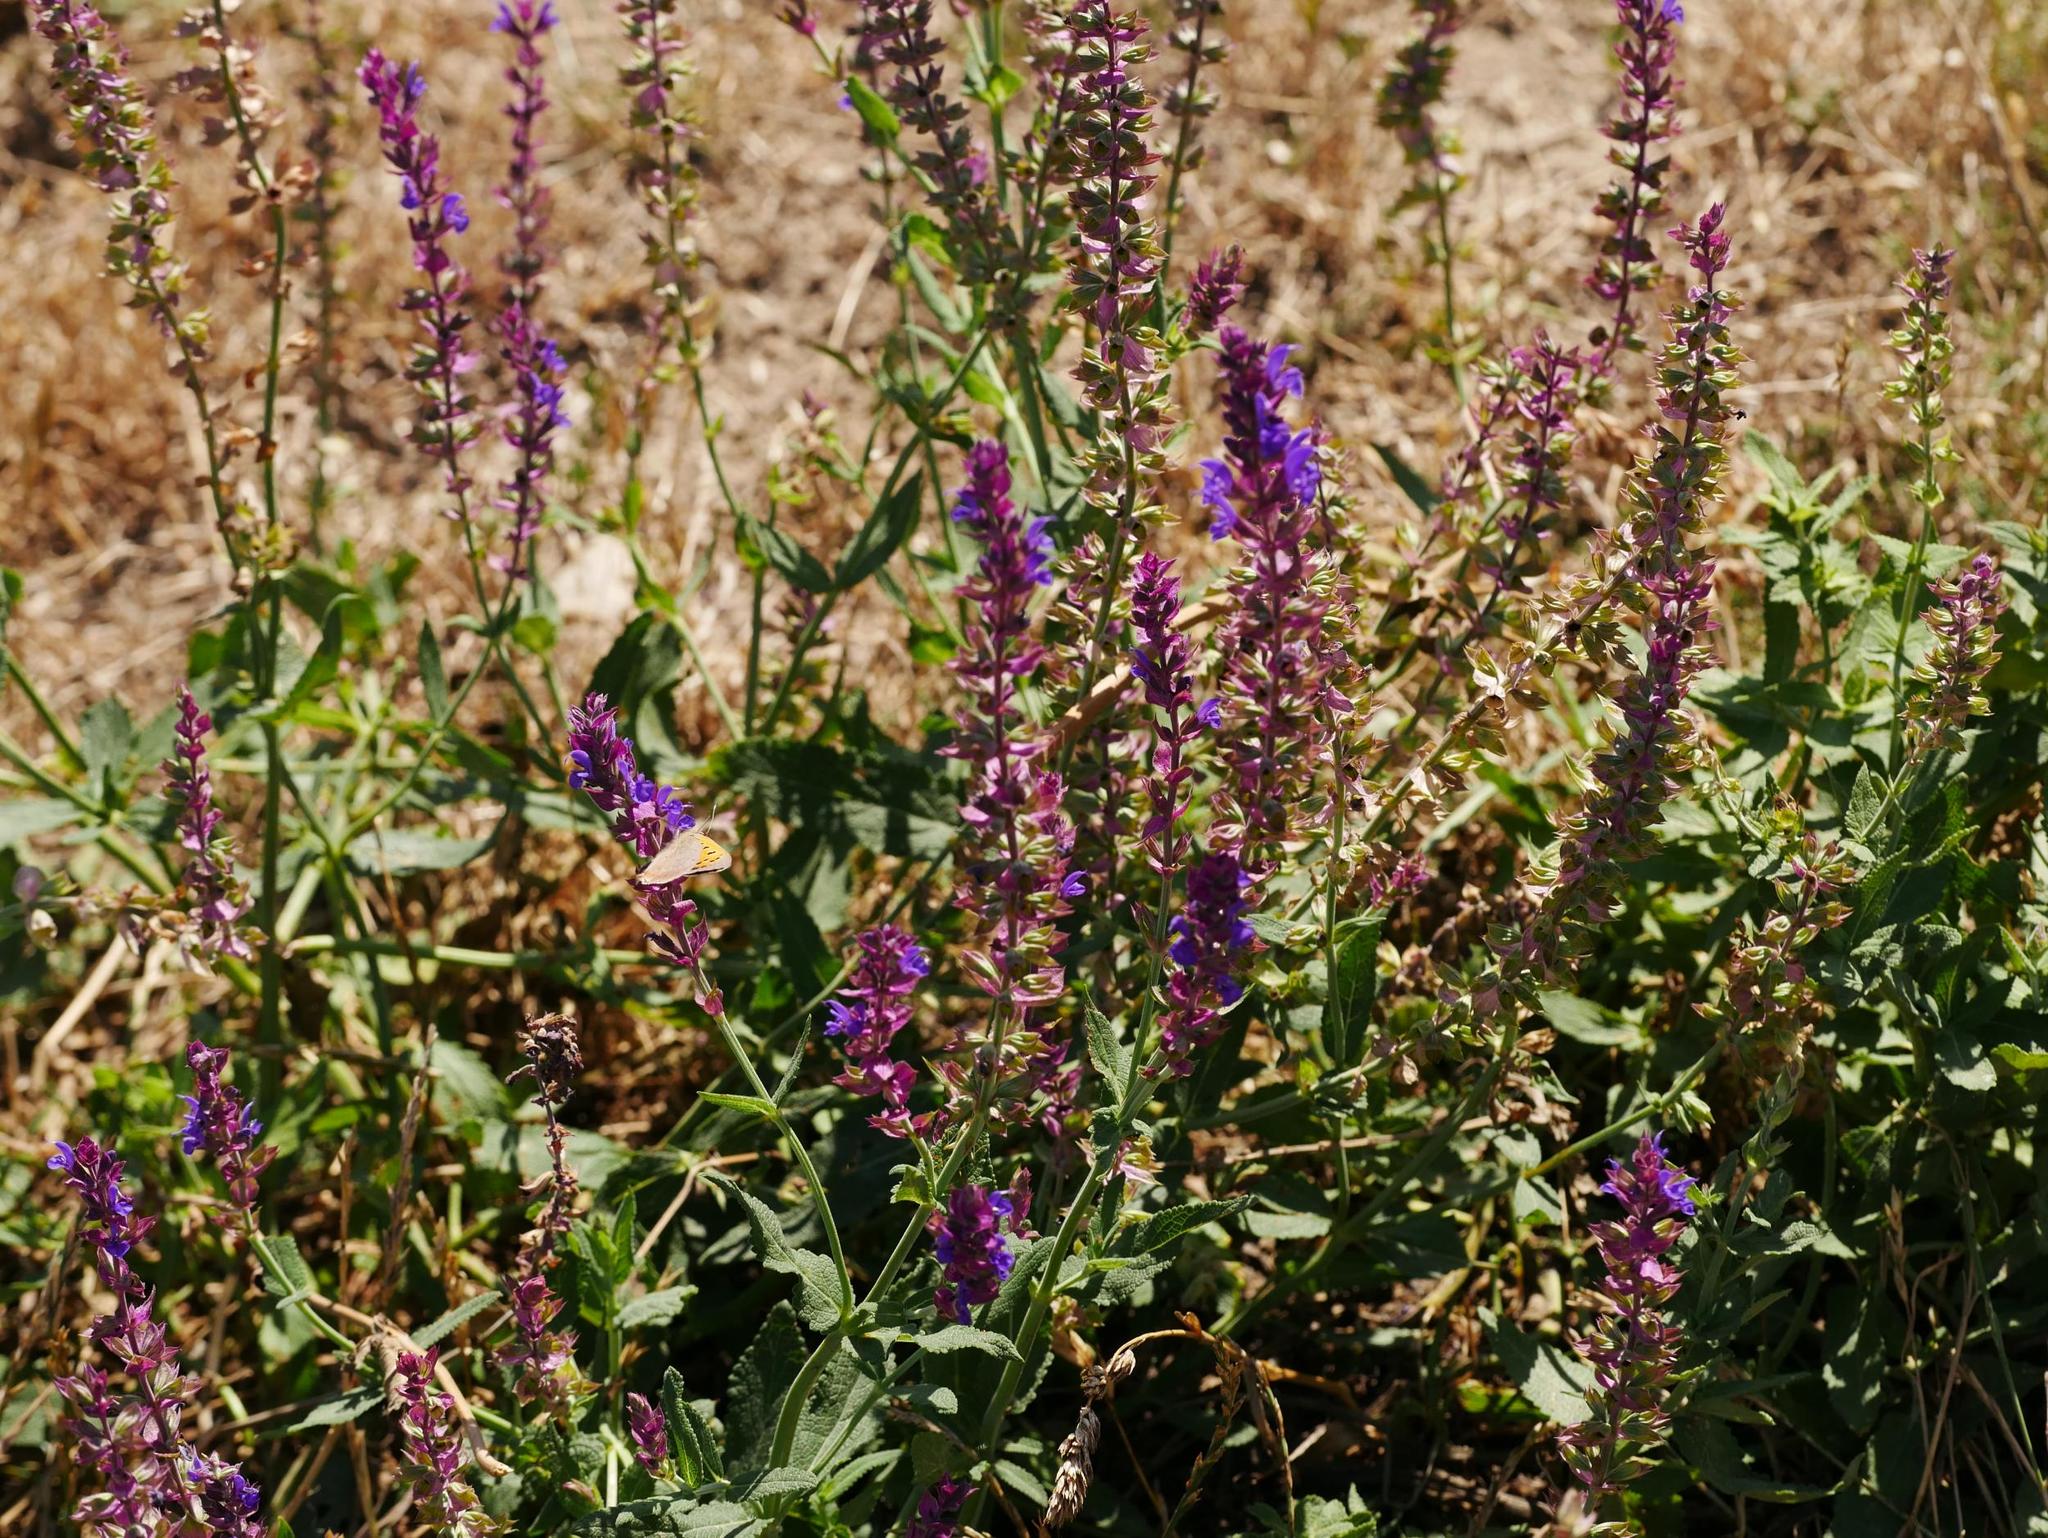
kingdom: Plantae
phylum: Tracheophyta
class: Magnoliopsida
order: Lamiales
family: Lamiaceae
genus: Salvia
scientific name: Salvia nemorosa
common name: Balkan clary
